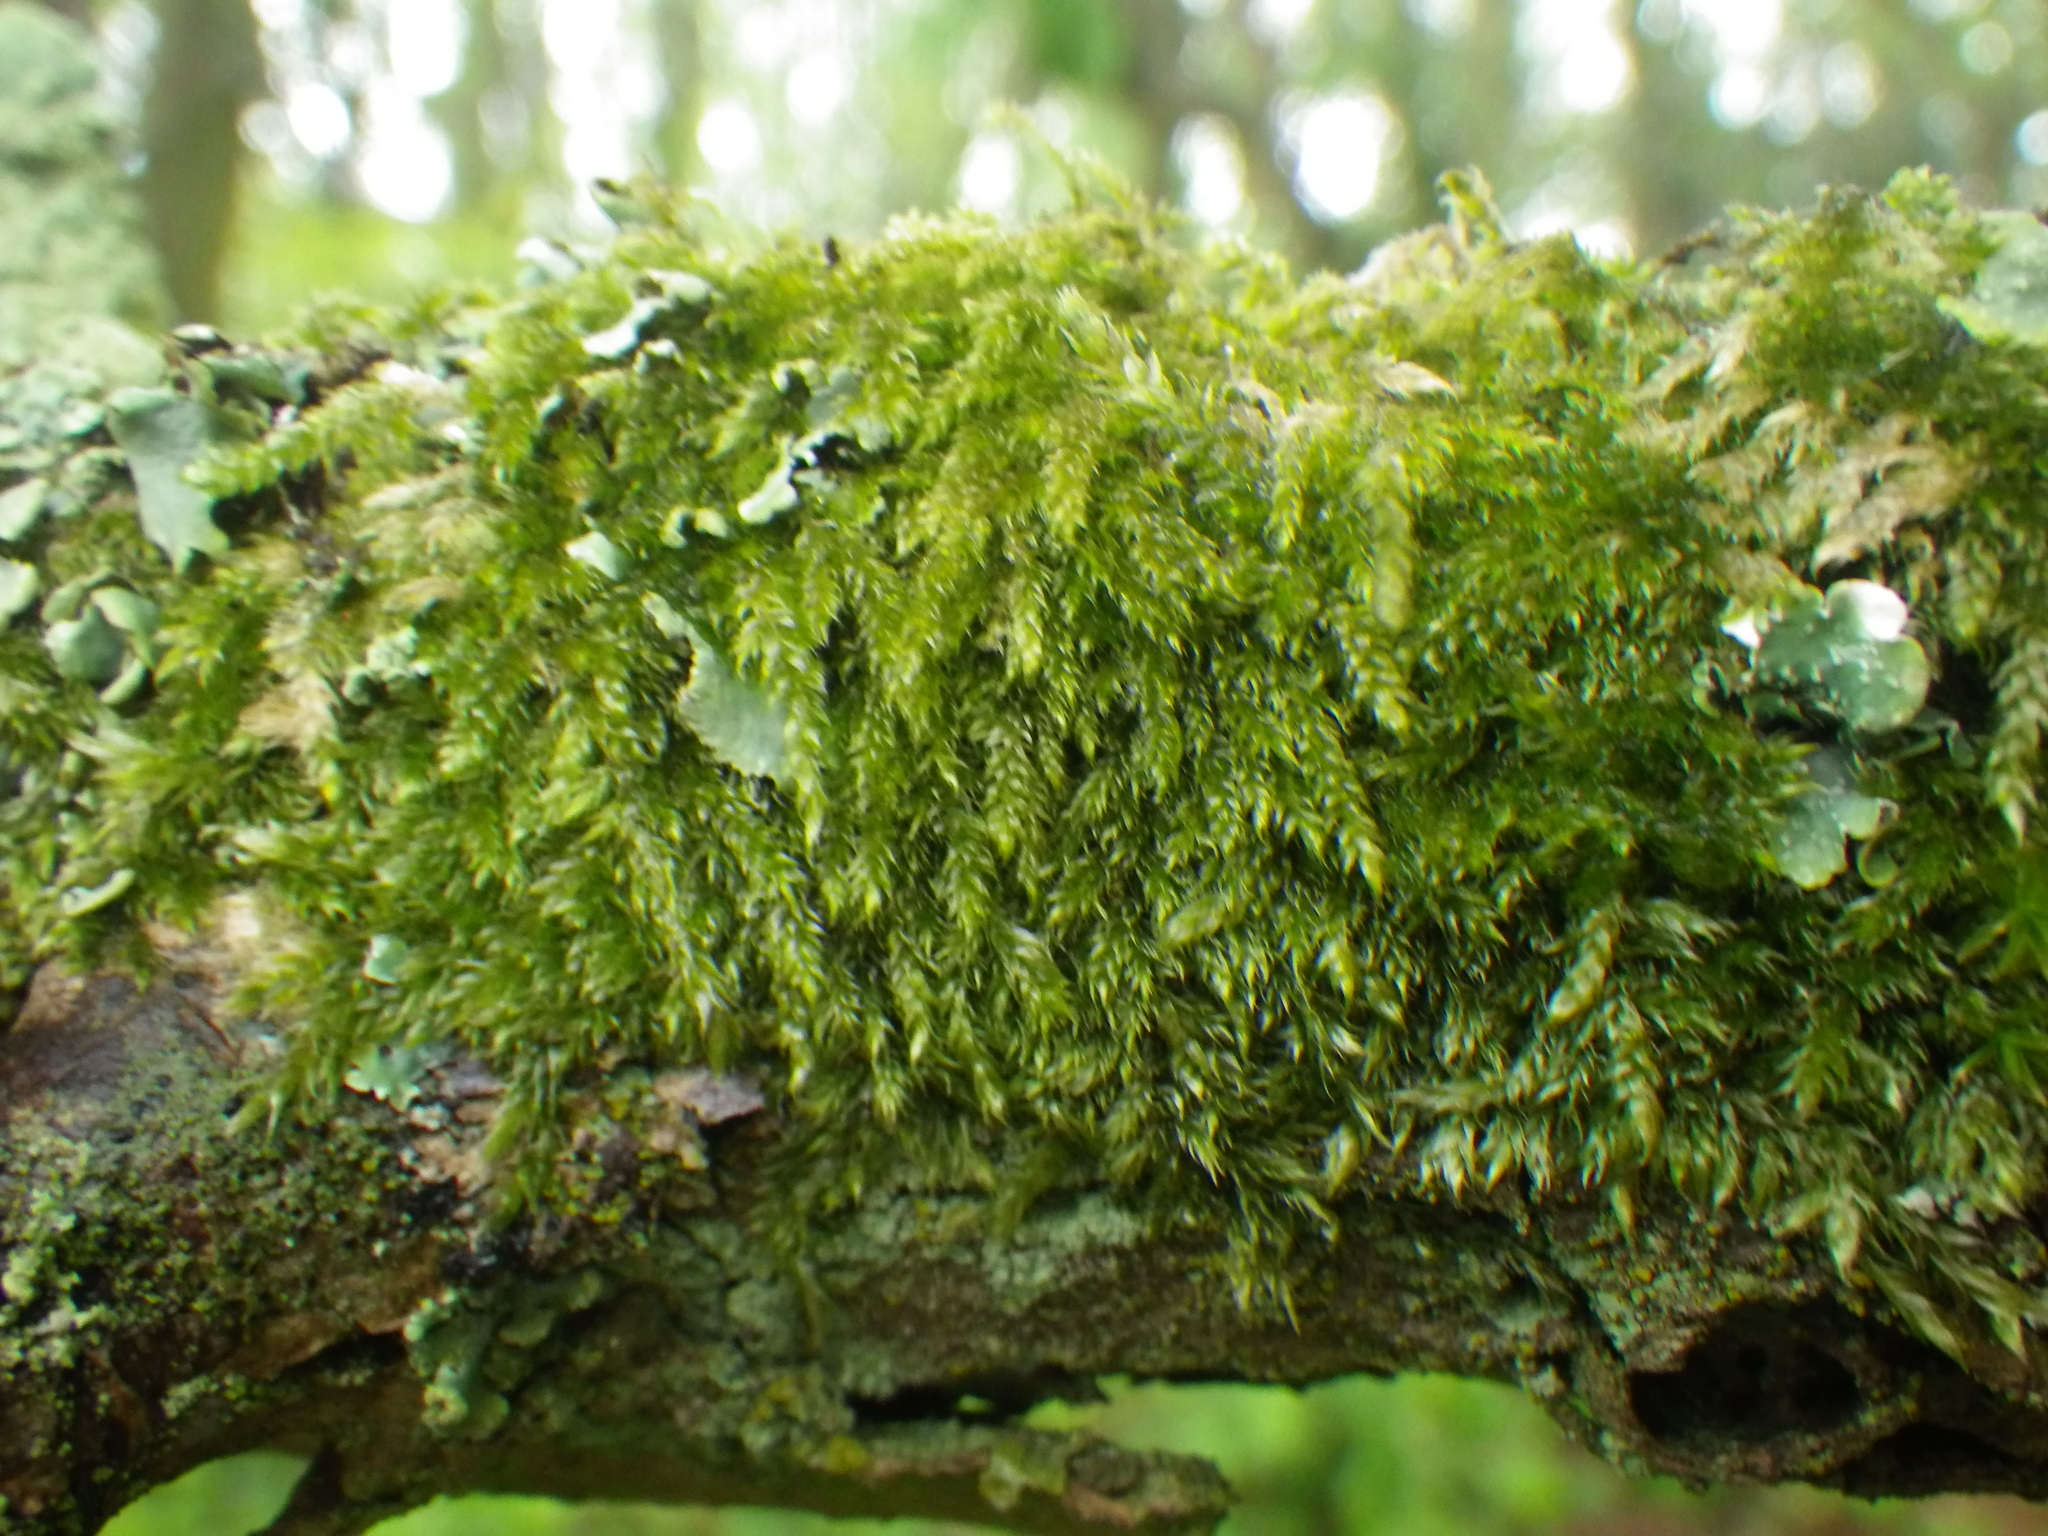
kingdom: Plantae
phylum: Bryophyta
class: Bryopsida
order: Hypnales
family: Hypnaceae
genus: Hypnum
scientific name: Hypnum cupressiforme
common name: Cypress-leaved plait-moss
